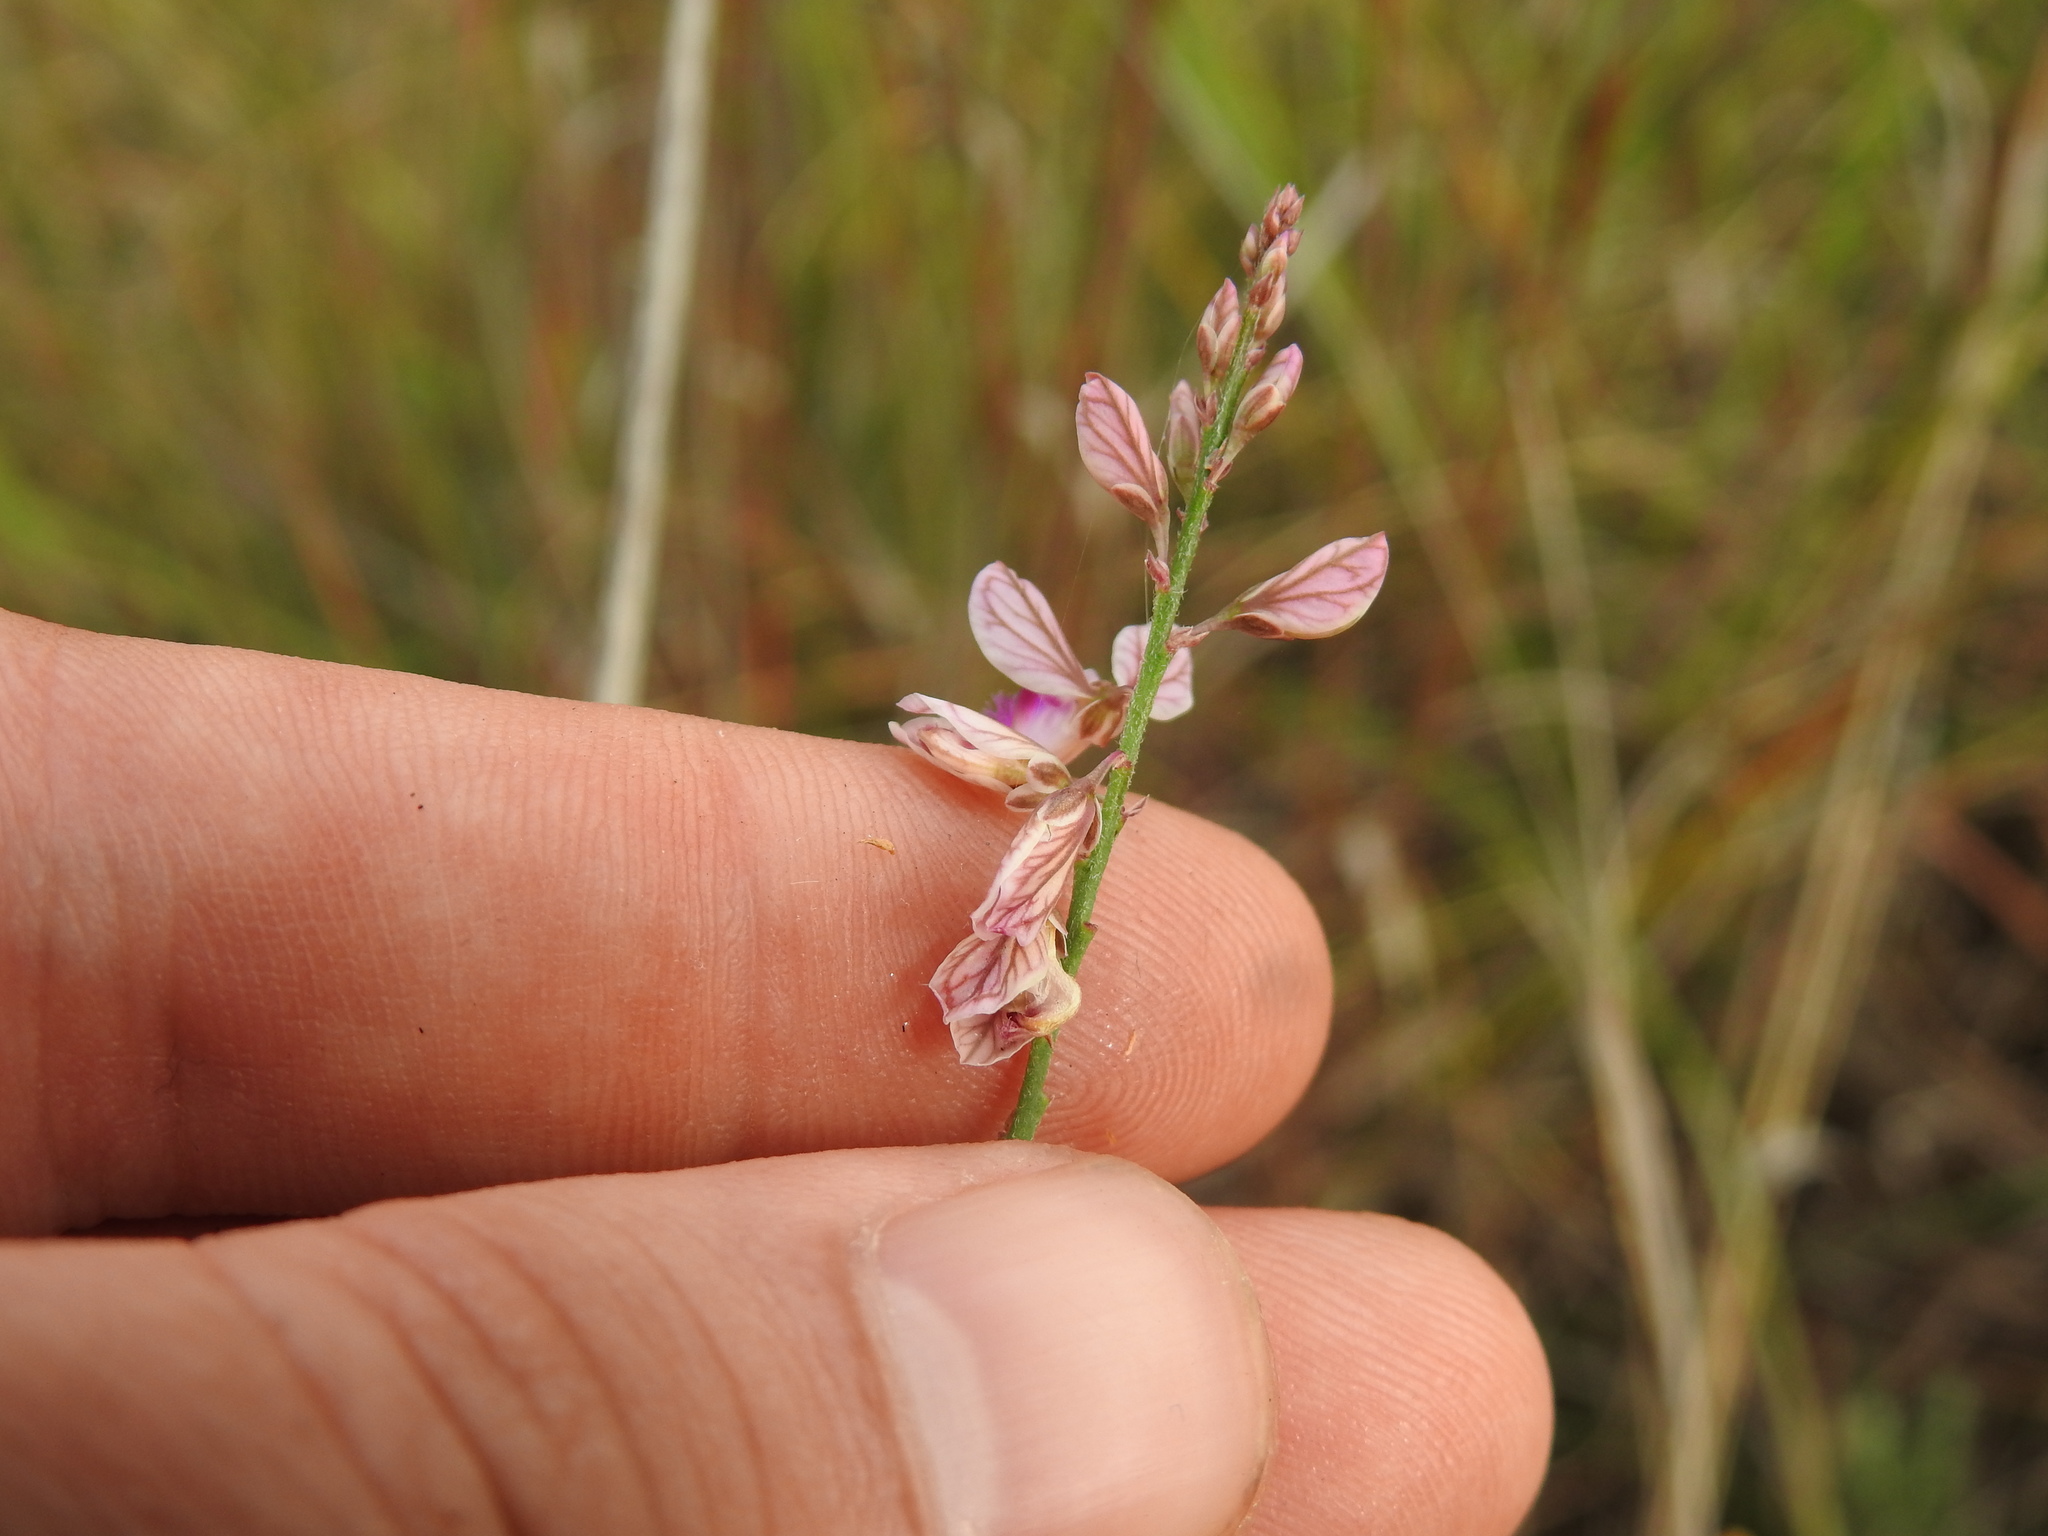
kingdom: Plantae
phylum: Tracheophyta
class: Magnoliopsida
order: Fabales
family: Polygalaceae
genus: Polygala
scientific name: Polygala hottentotta
